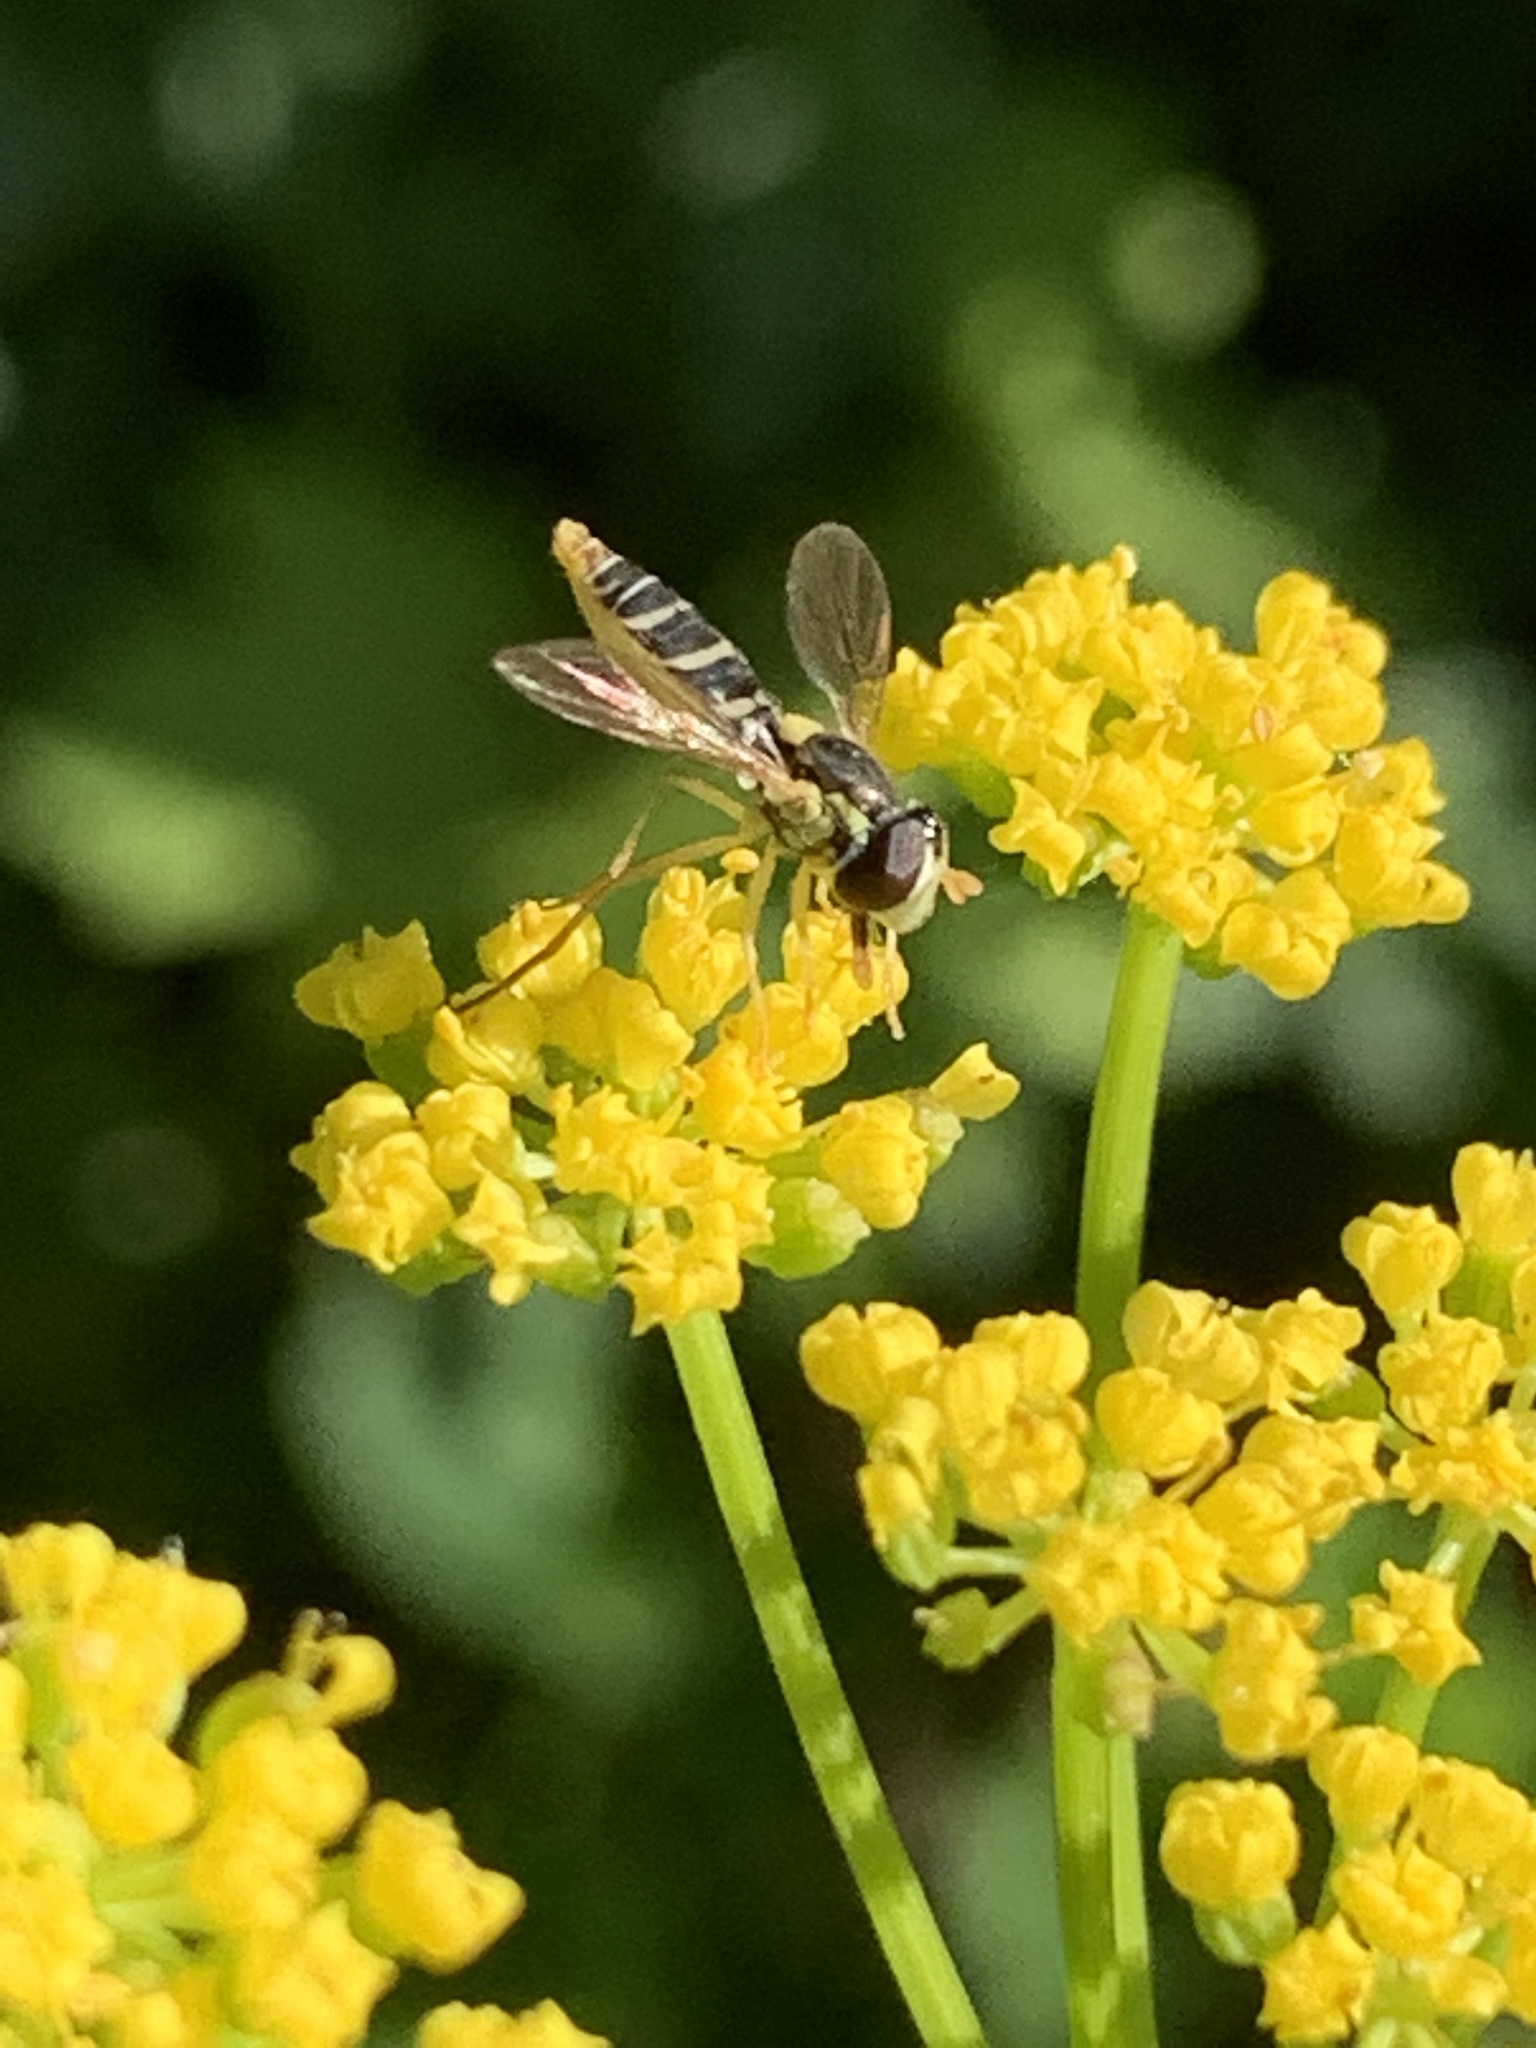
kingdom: Animalia
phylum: Arthropoda
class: Insecta
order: Diptera
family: Syrphidae
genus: Sphaerophoria
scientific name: Sphaerophoria contigua
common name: Tufted globetail
